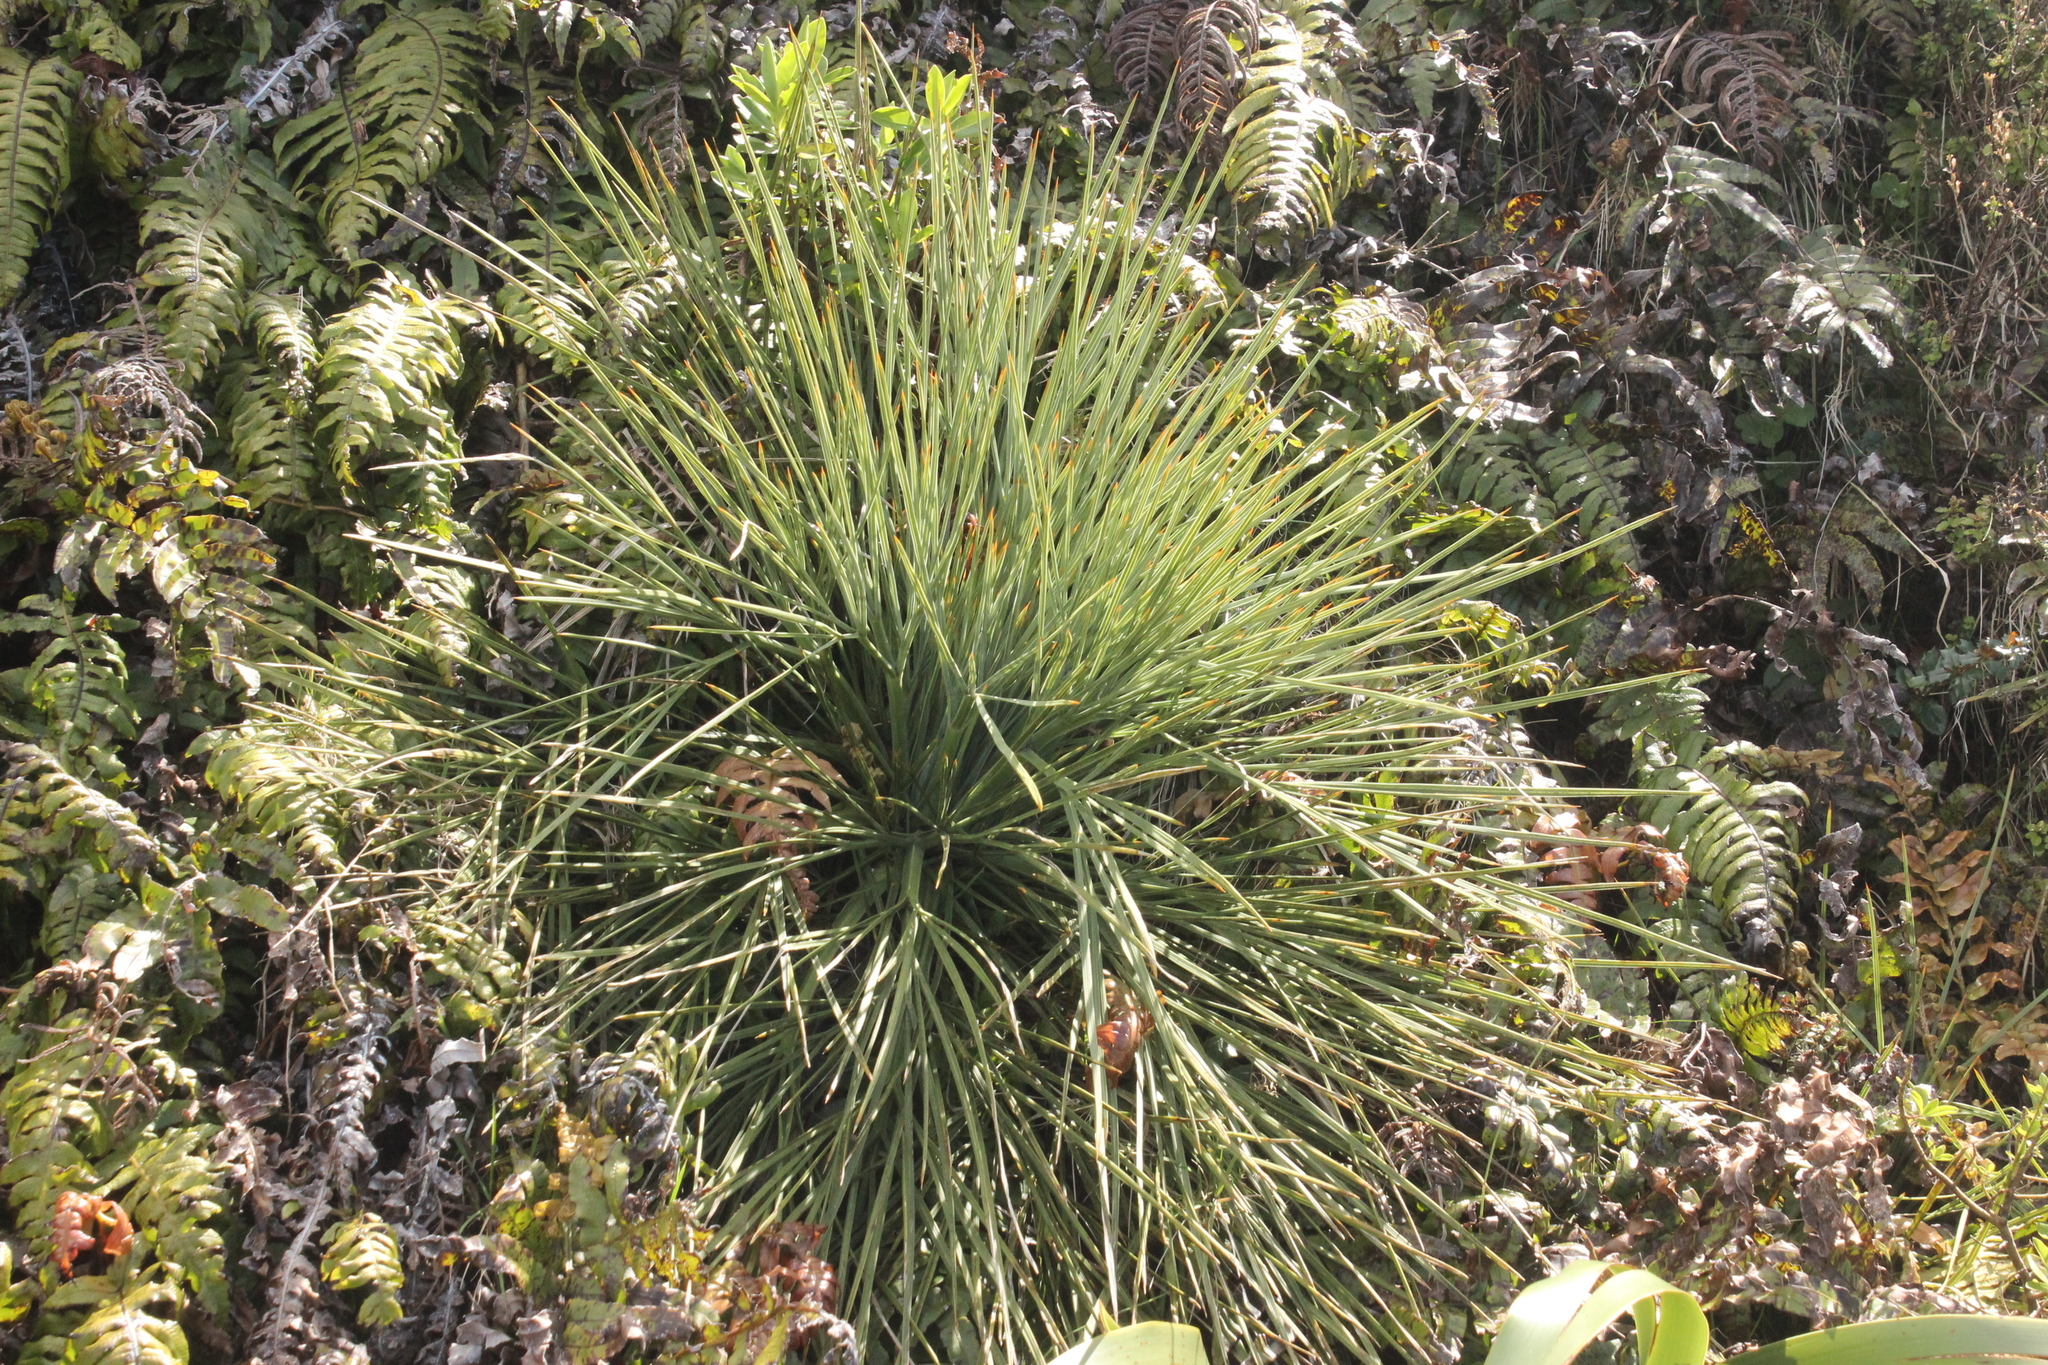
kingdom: Plantae
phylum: Tracheophyta
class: Magnoliopsida
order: Apiales
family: Apiaceae
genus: Aciphylla
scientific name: Aciphylla squarrosa
